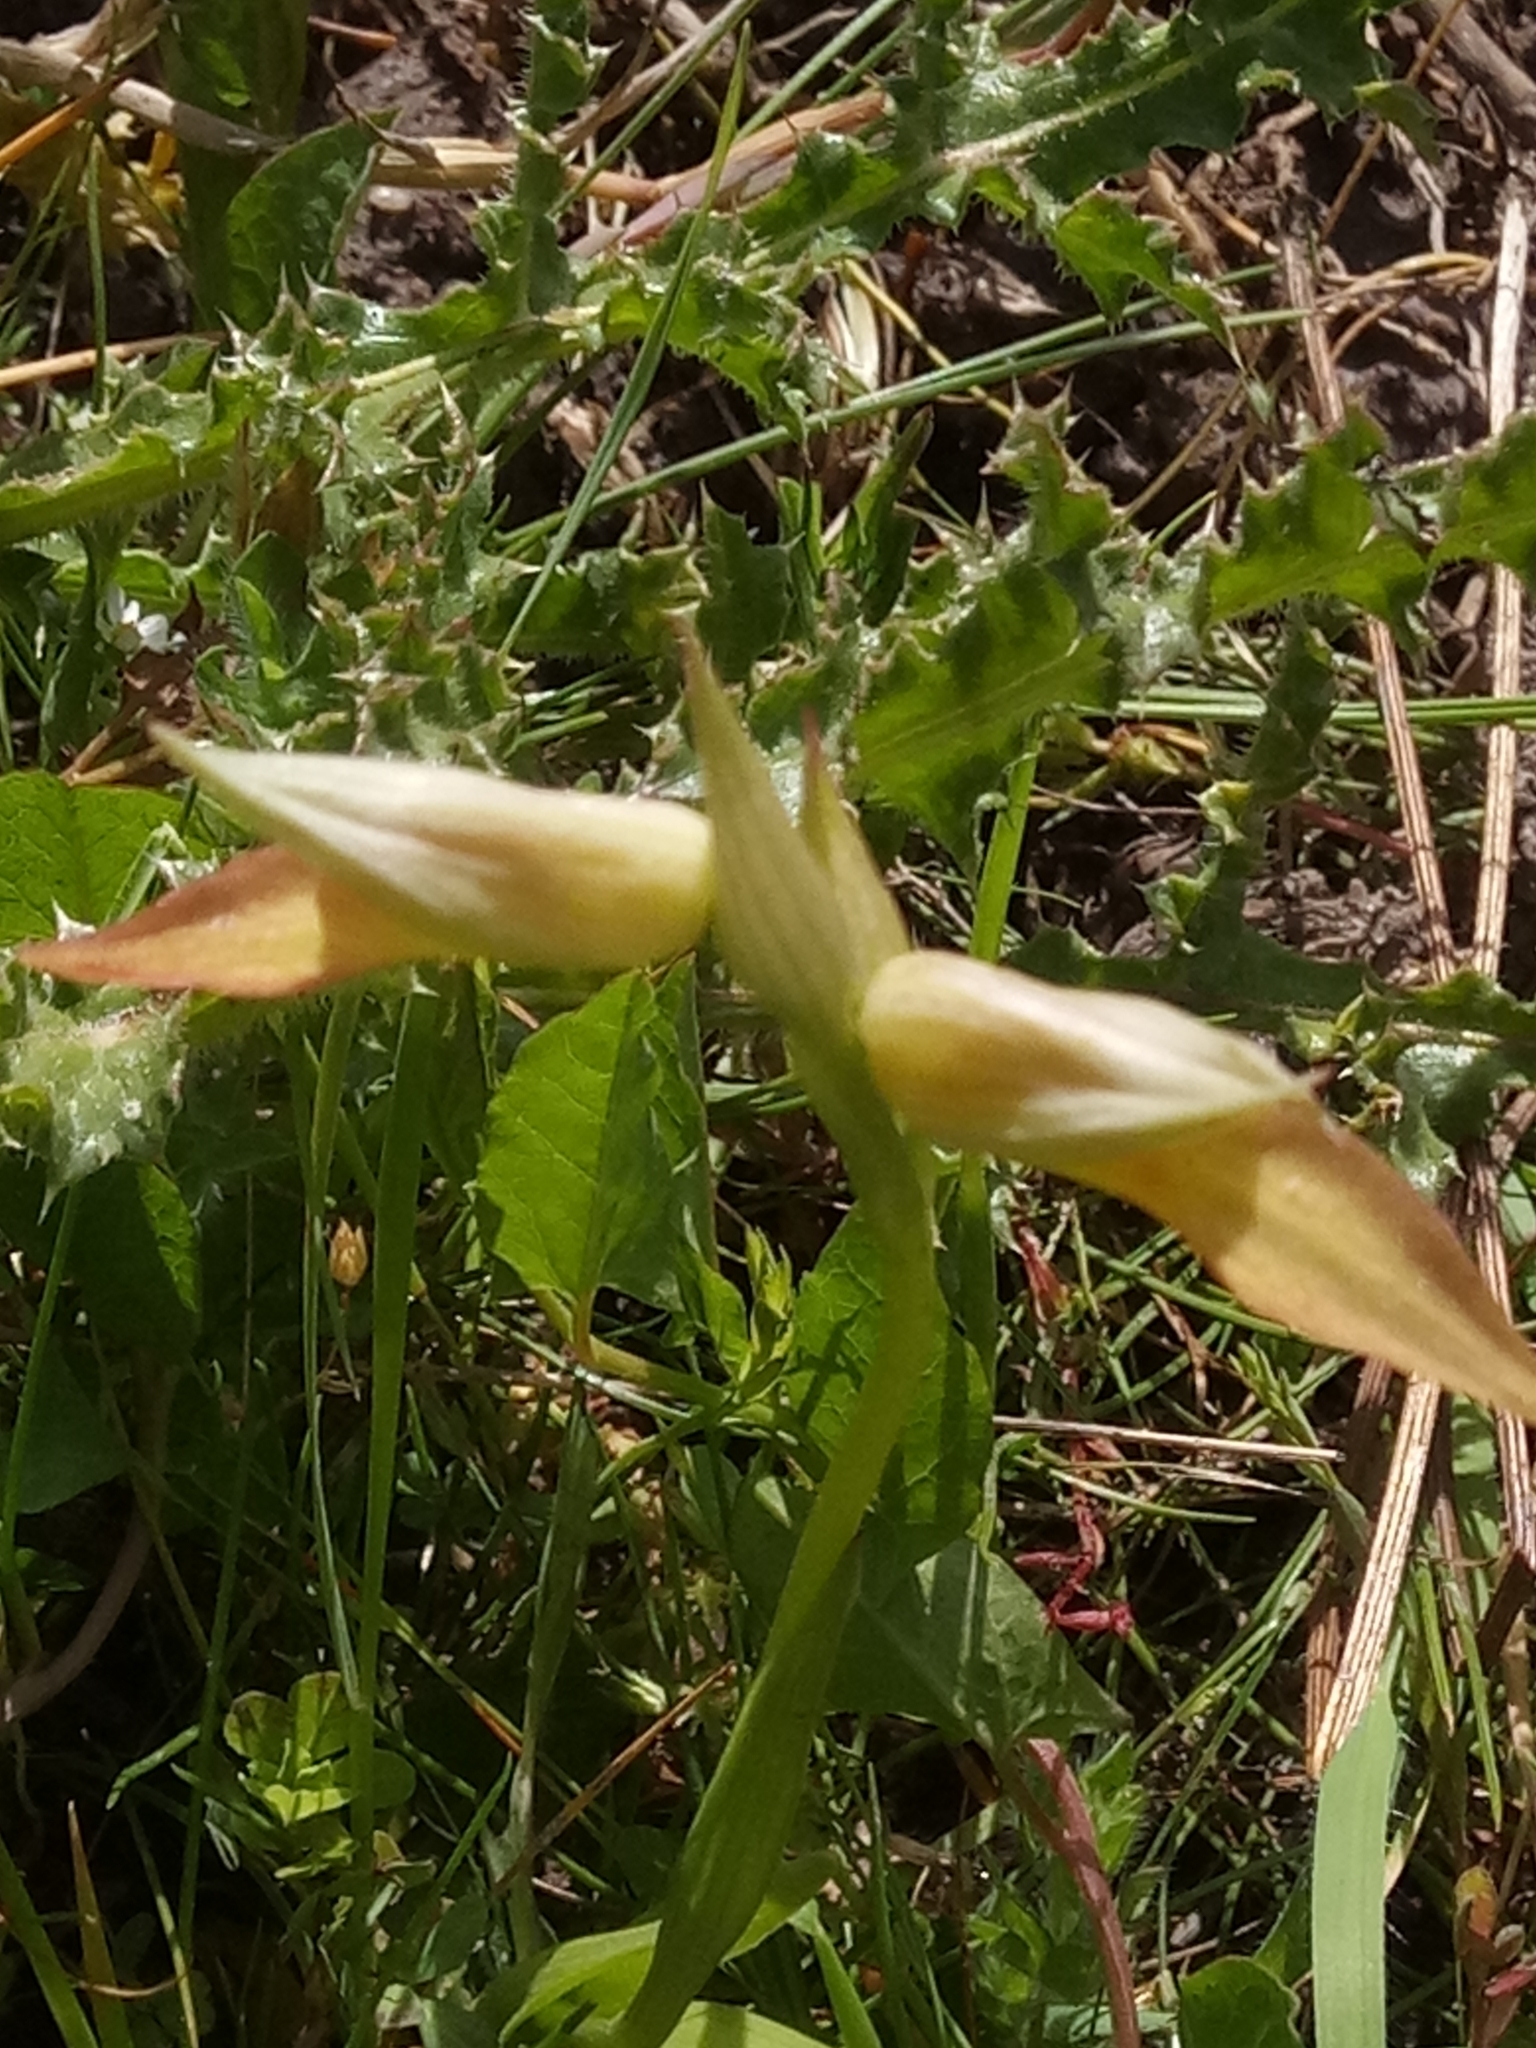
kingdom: Plantae
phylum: Tracheophyta
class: Liliopsida
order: Asparagales
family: Orchidaceae
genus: Serapias
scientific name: Serapias
